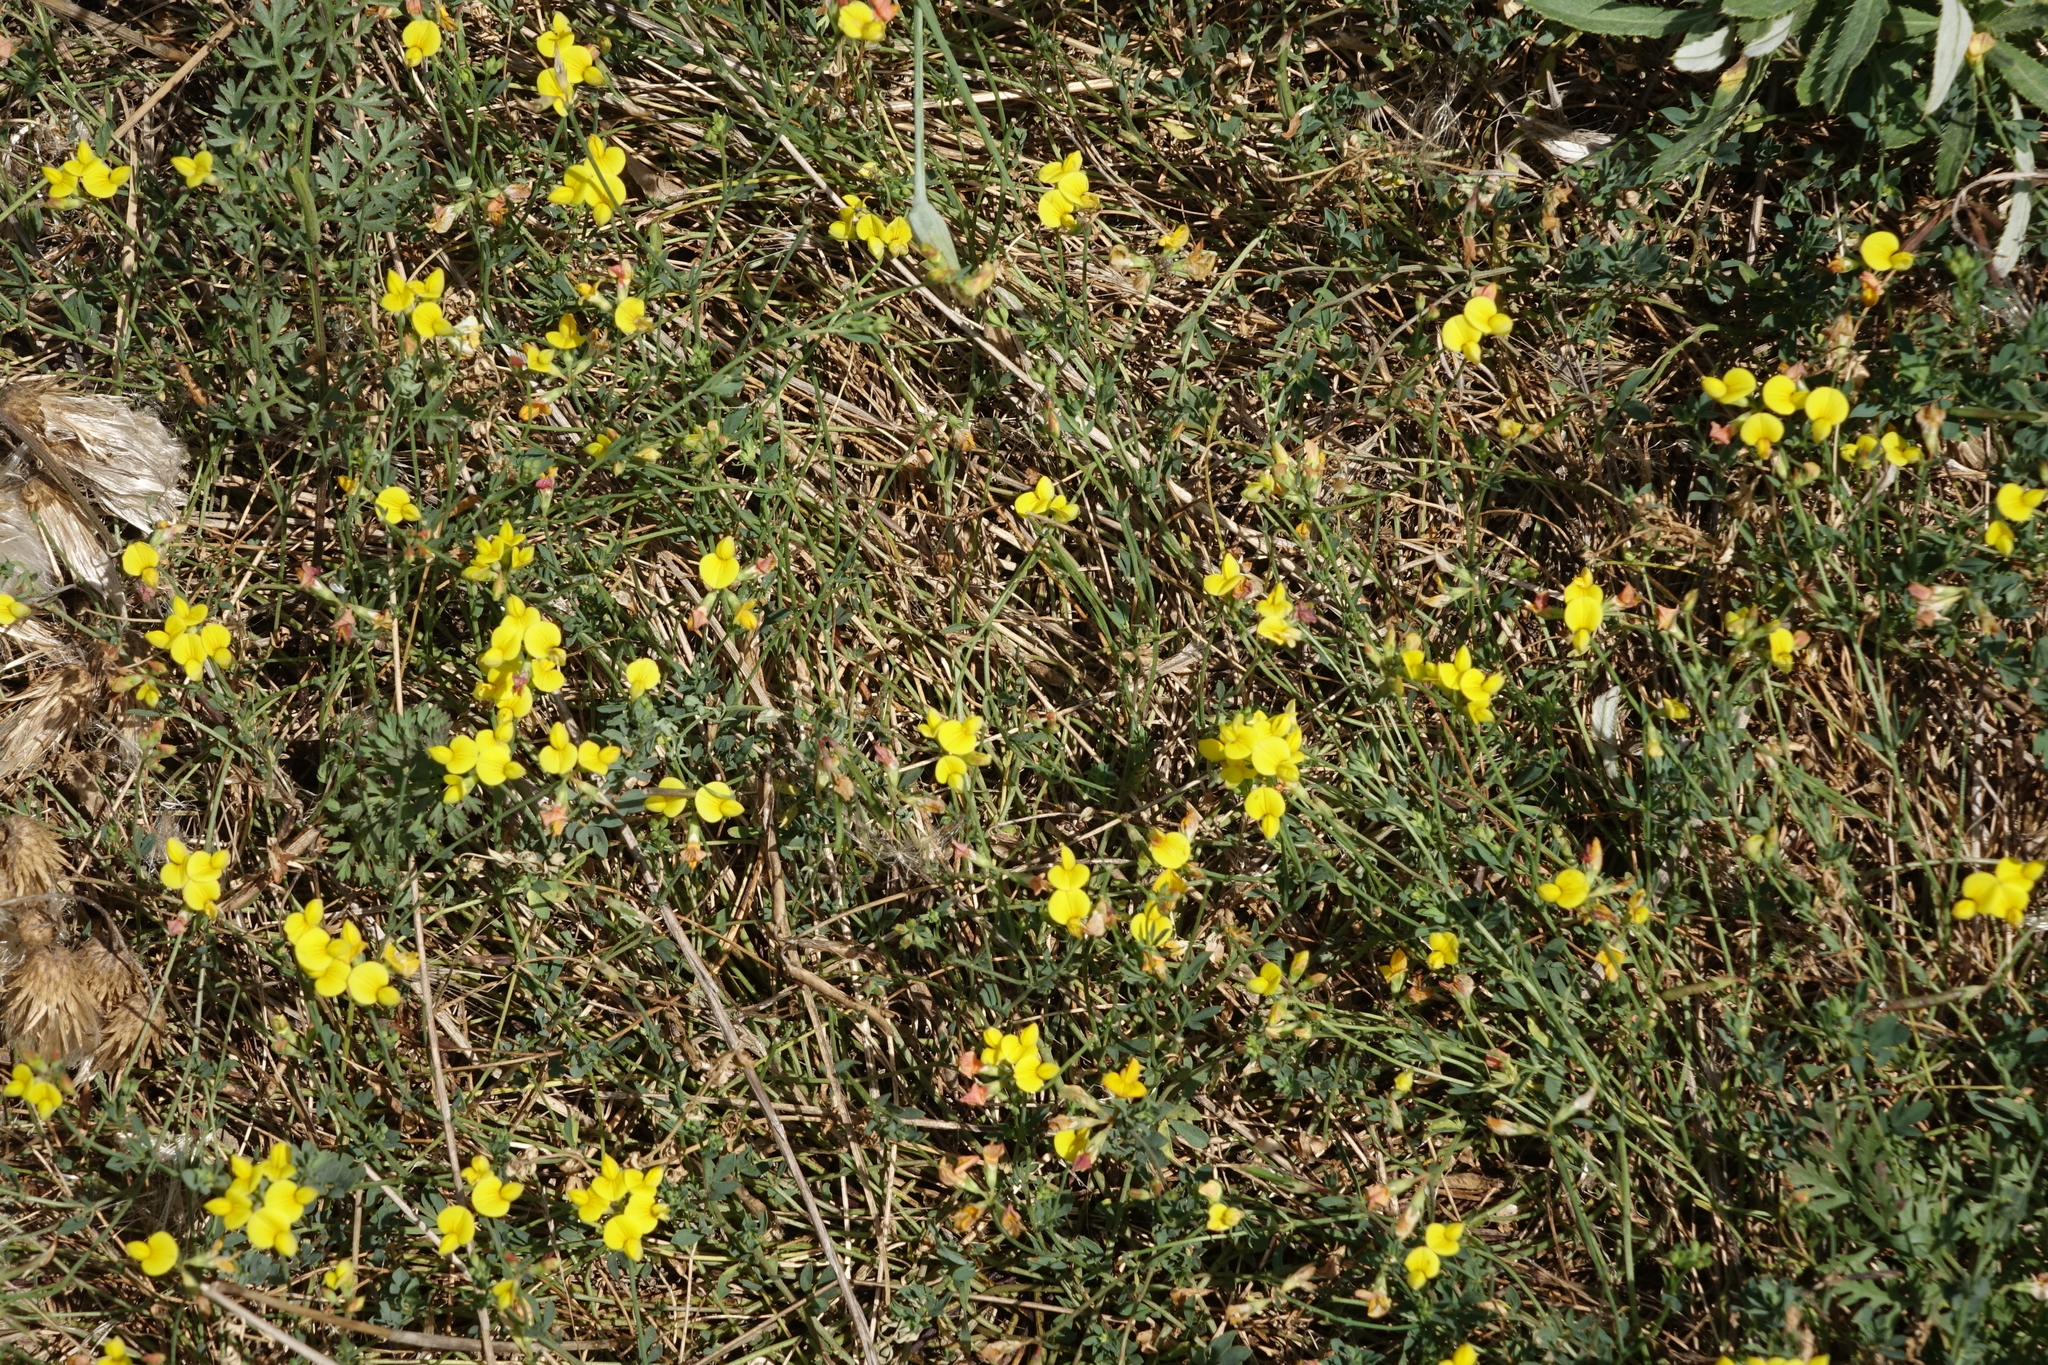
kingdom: Plantae
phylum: Tracheophyta
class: Magnoliopsida
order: Fabales
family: Fabaceae
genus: Lotus
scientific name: Lotus corniculatus
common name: Common bird's-foot-trefoil
